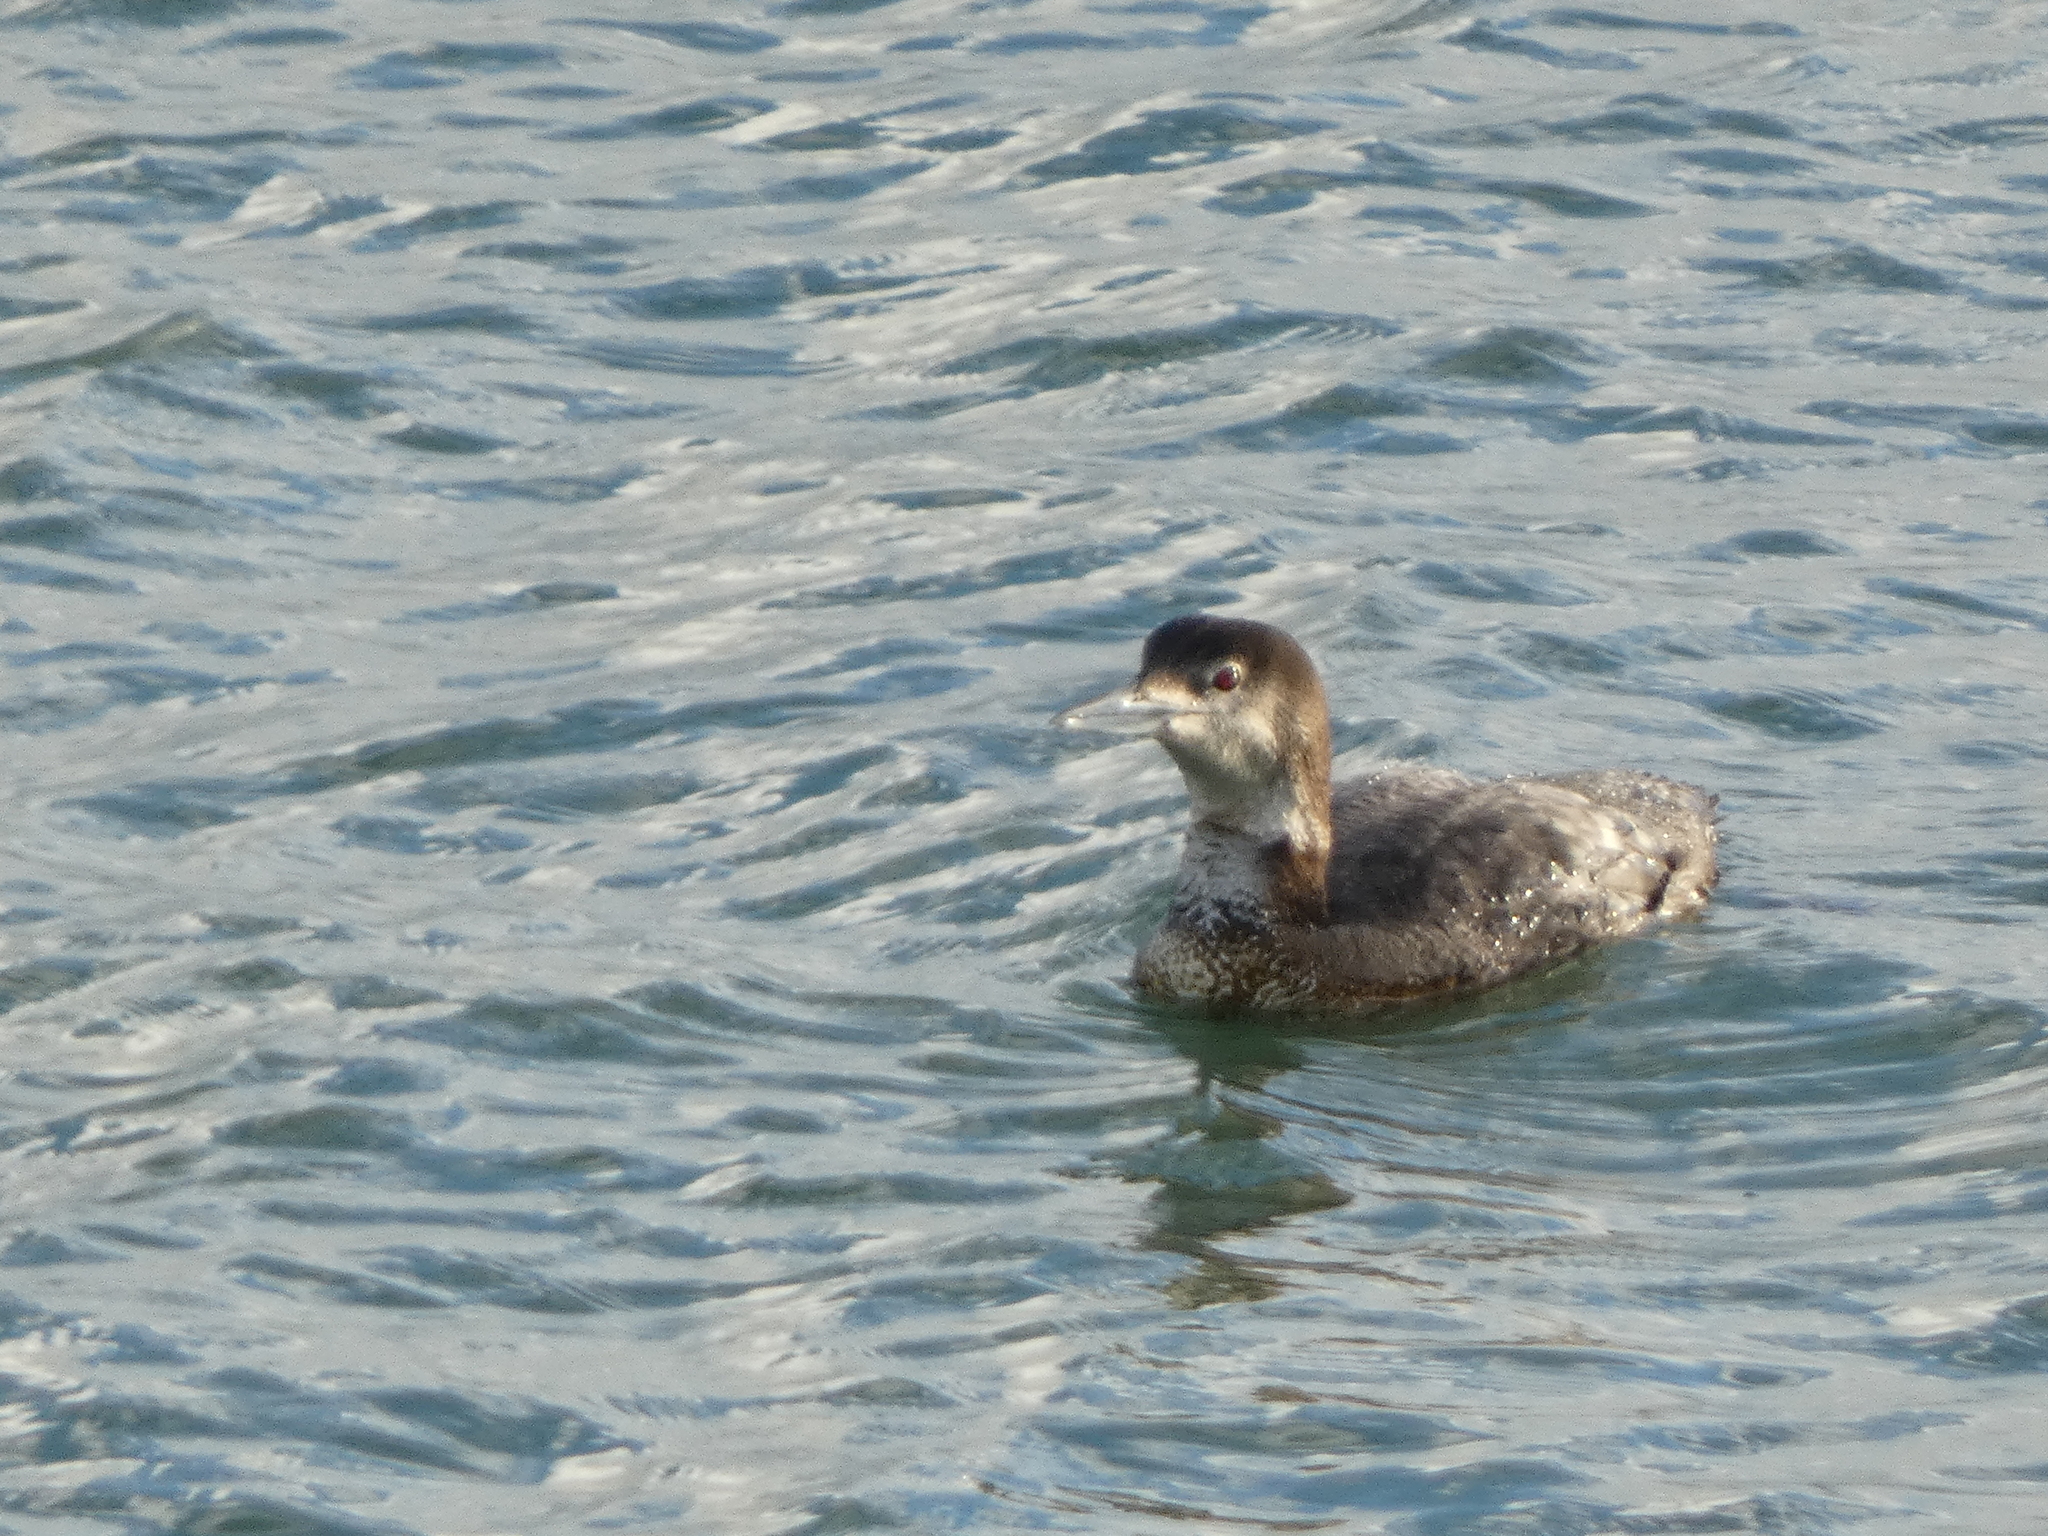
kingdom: Animalia
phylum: Chordata
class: Aves
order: Gaviiformes
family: Gaviidae
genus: Gavia
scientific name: Gavia immer
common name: Common loon
